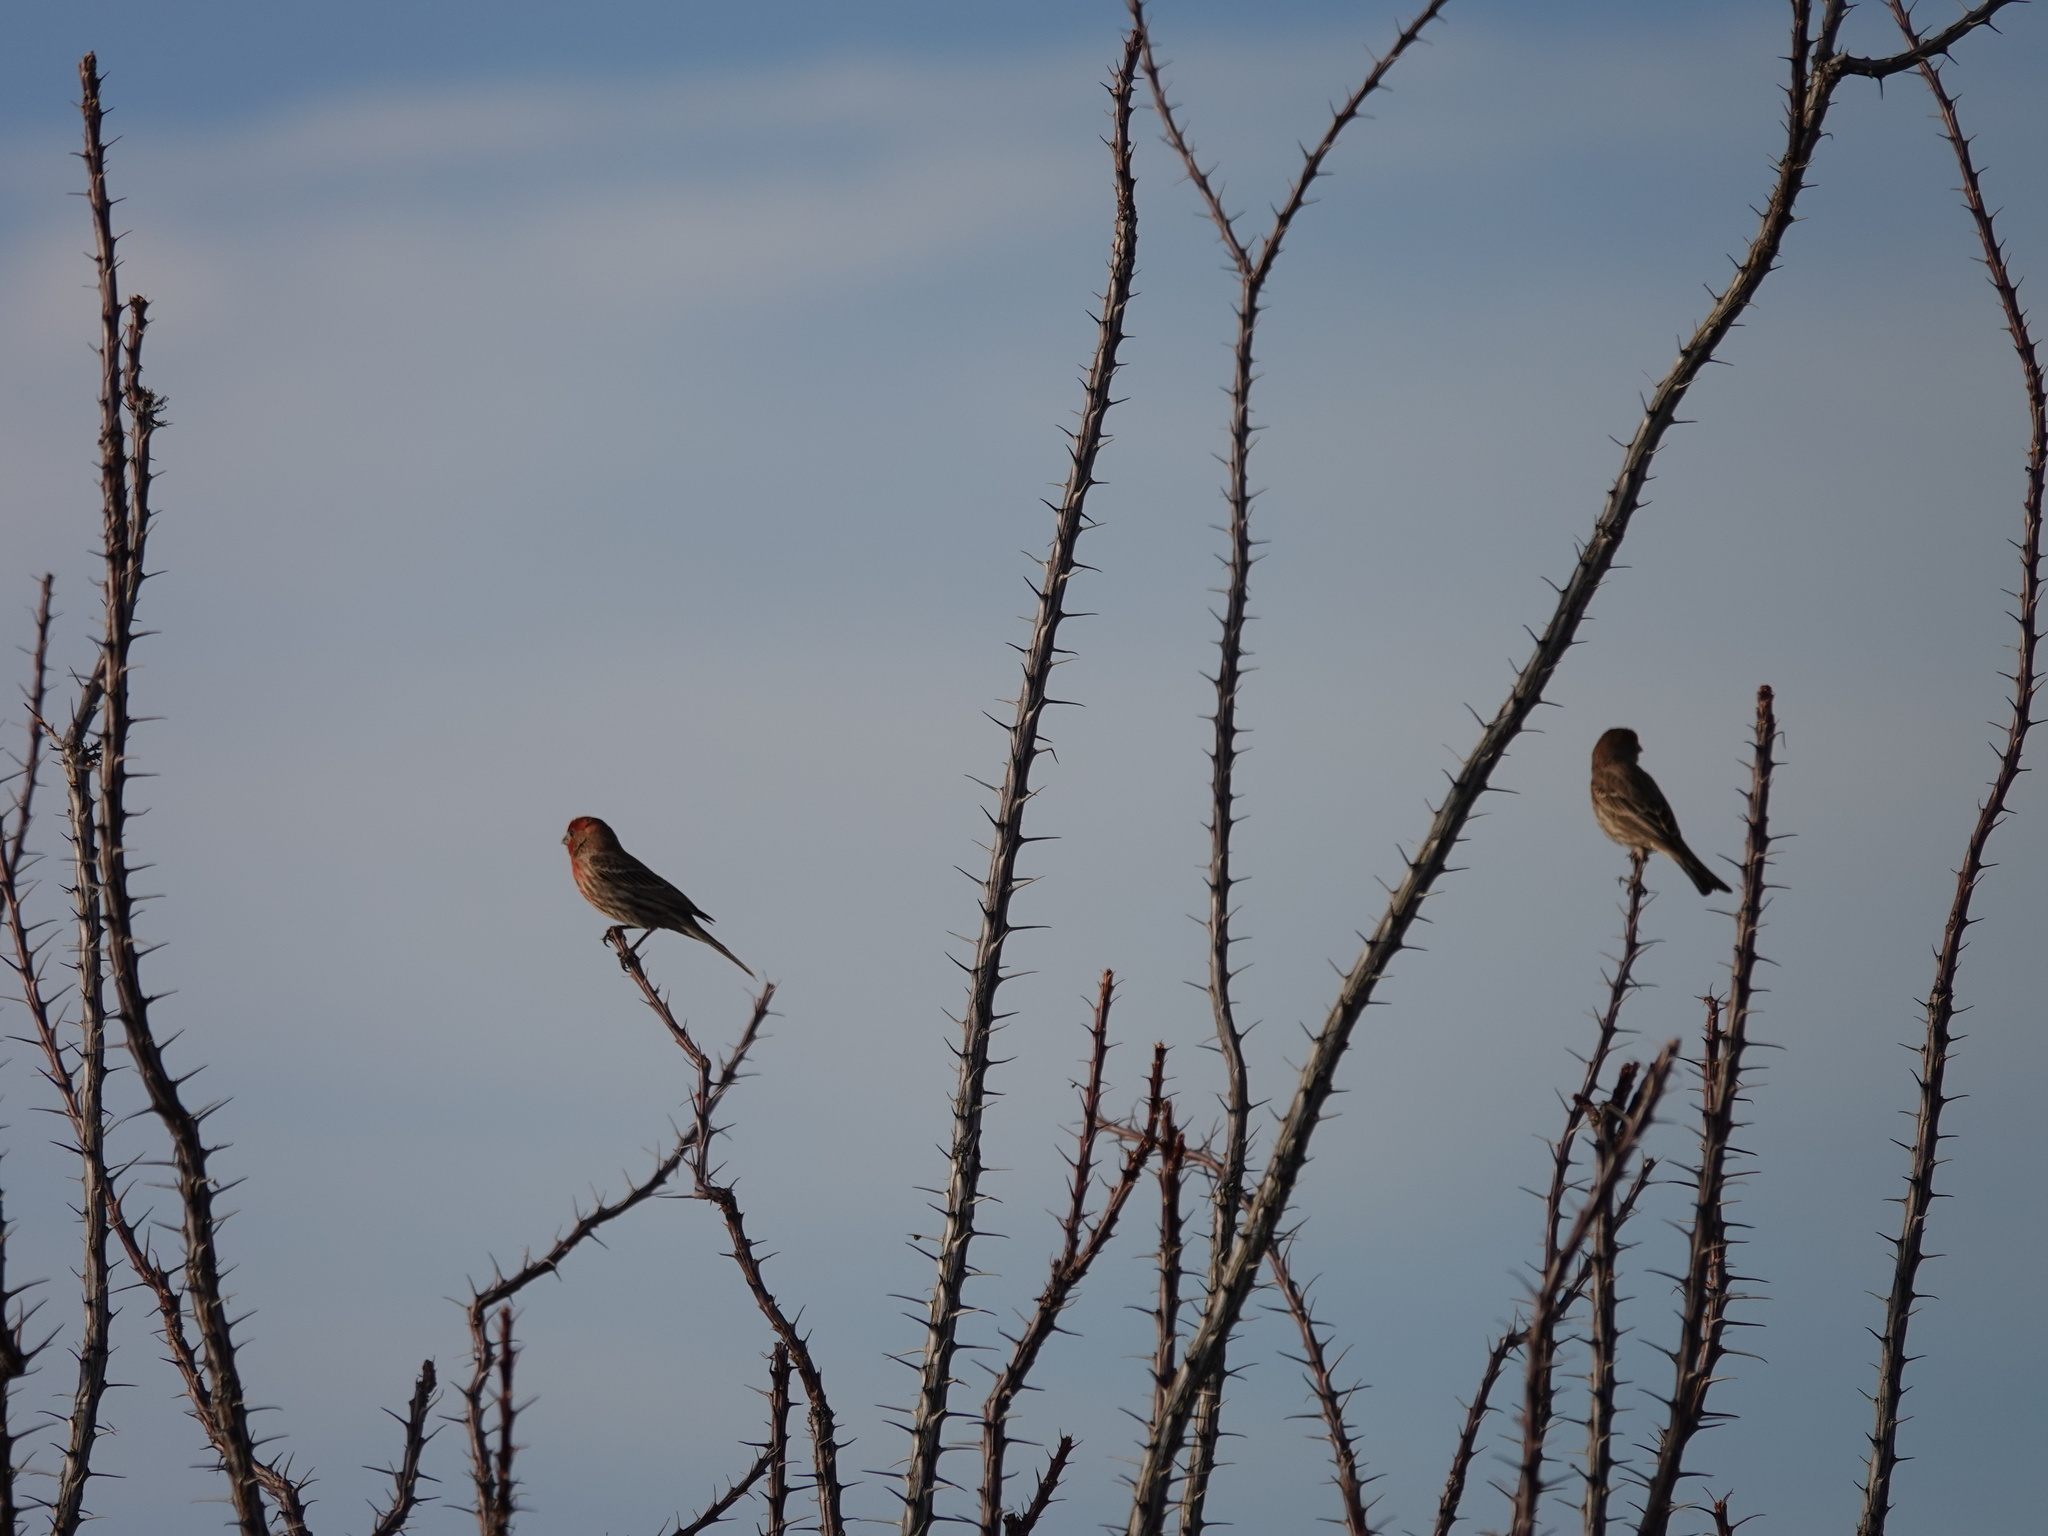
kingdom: Animalia
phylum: Chordata
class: Aves
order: Passeriformes
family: Fringillidae
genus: Haemorhous
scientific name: Haemorhous mexicanus
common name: House finch
